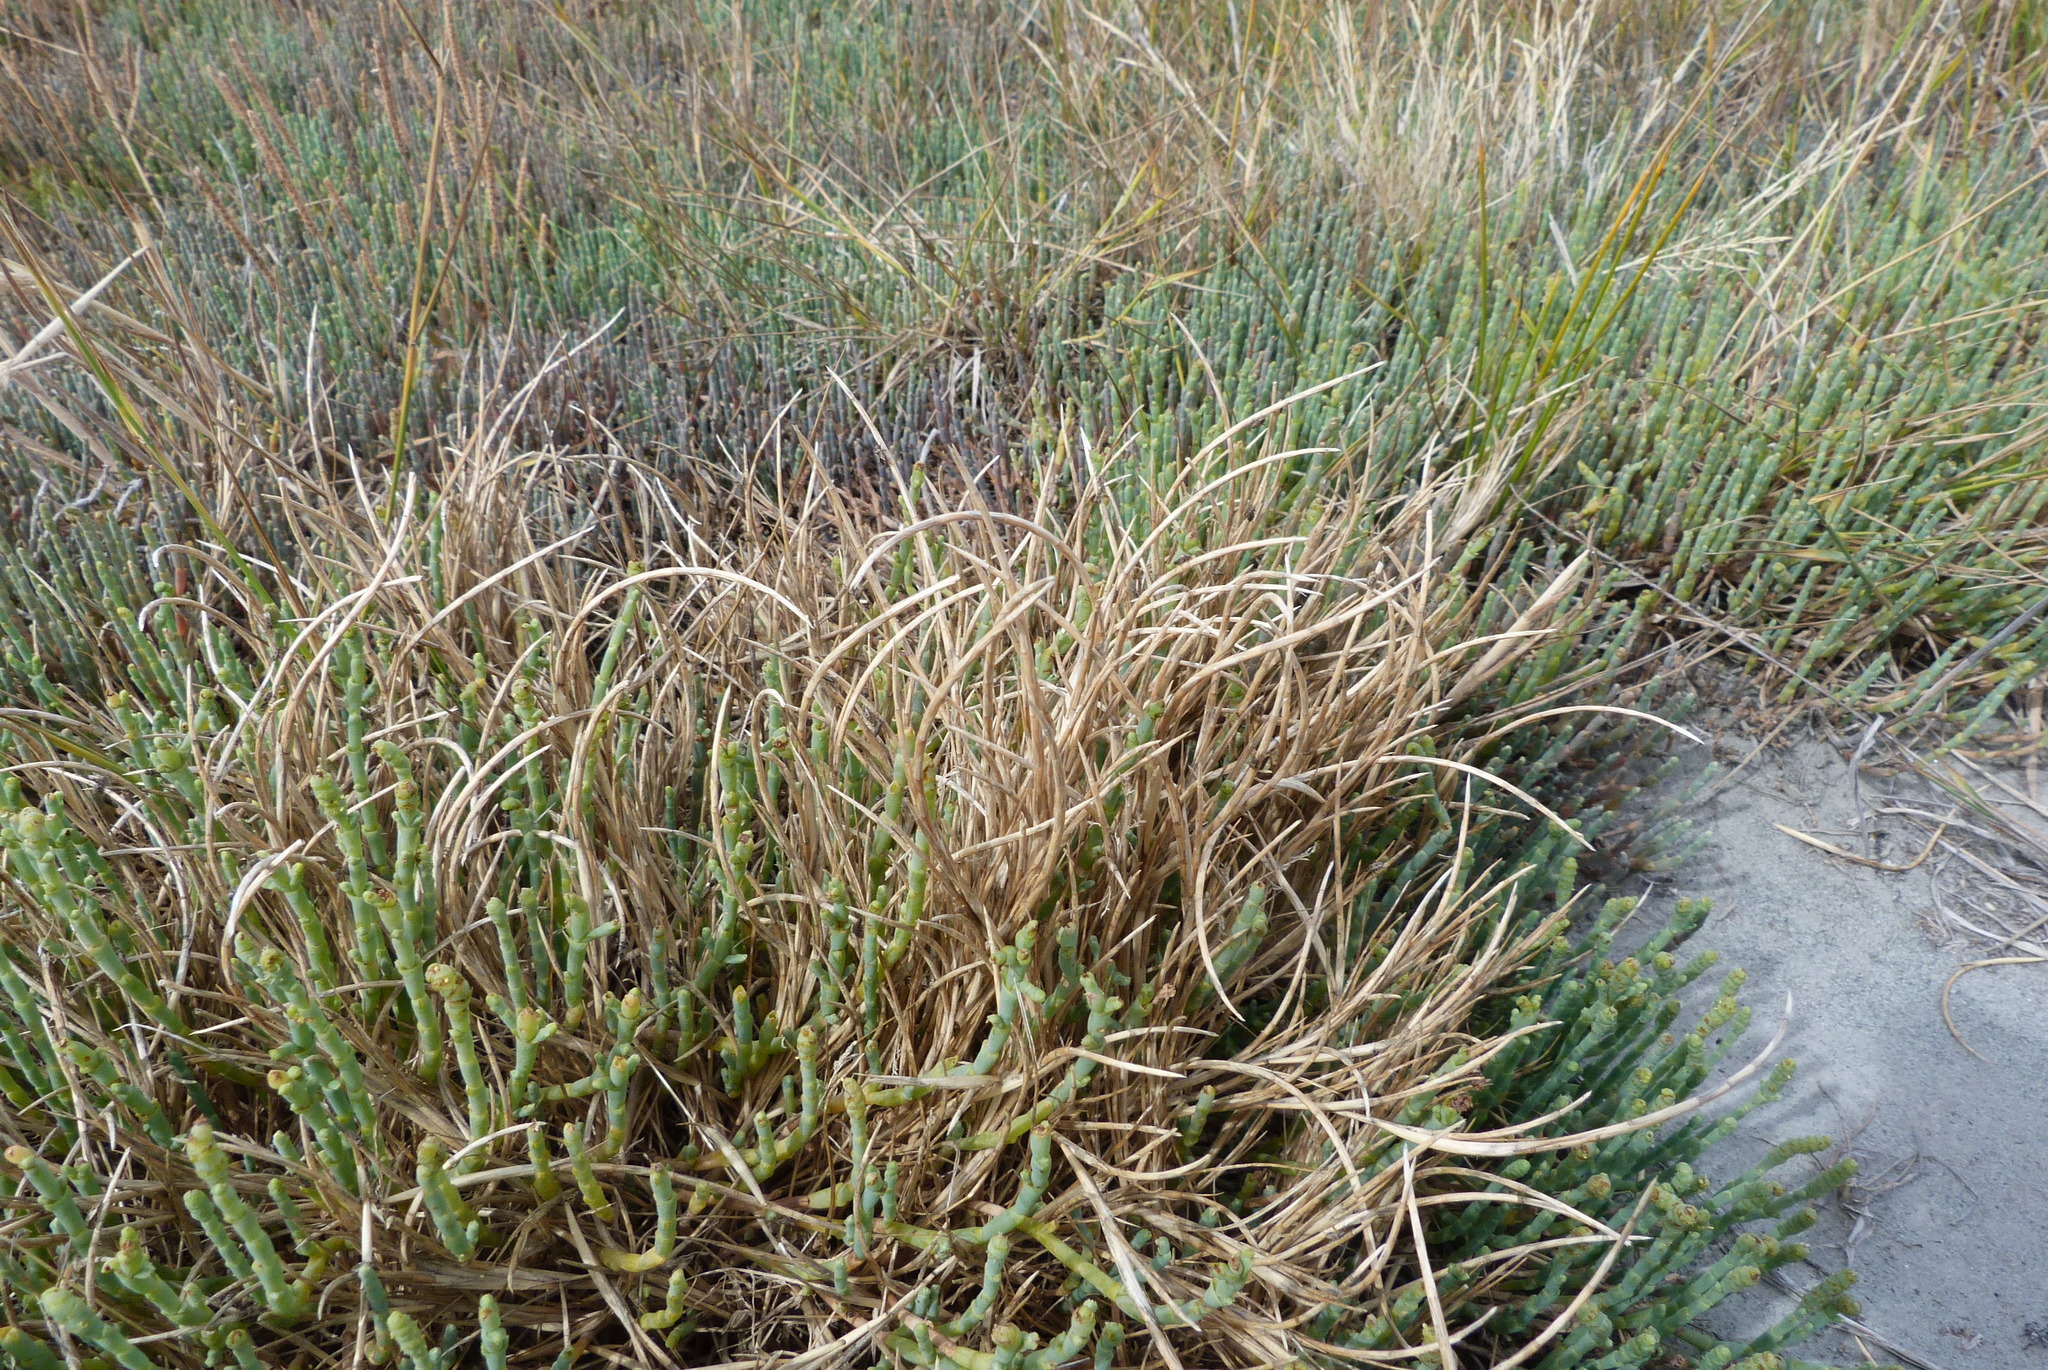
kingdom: Plantae
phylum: Tracheophyta
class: Liliopsida
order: Poales
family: Poaceae
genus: Parapholis
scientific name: Parapholis incurva
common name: Curved sicklegrass
